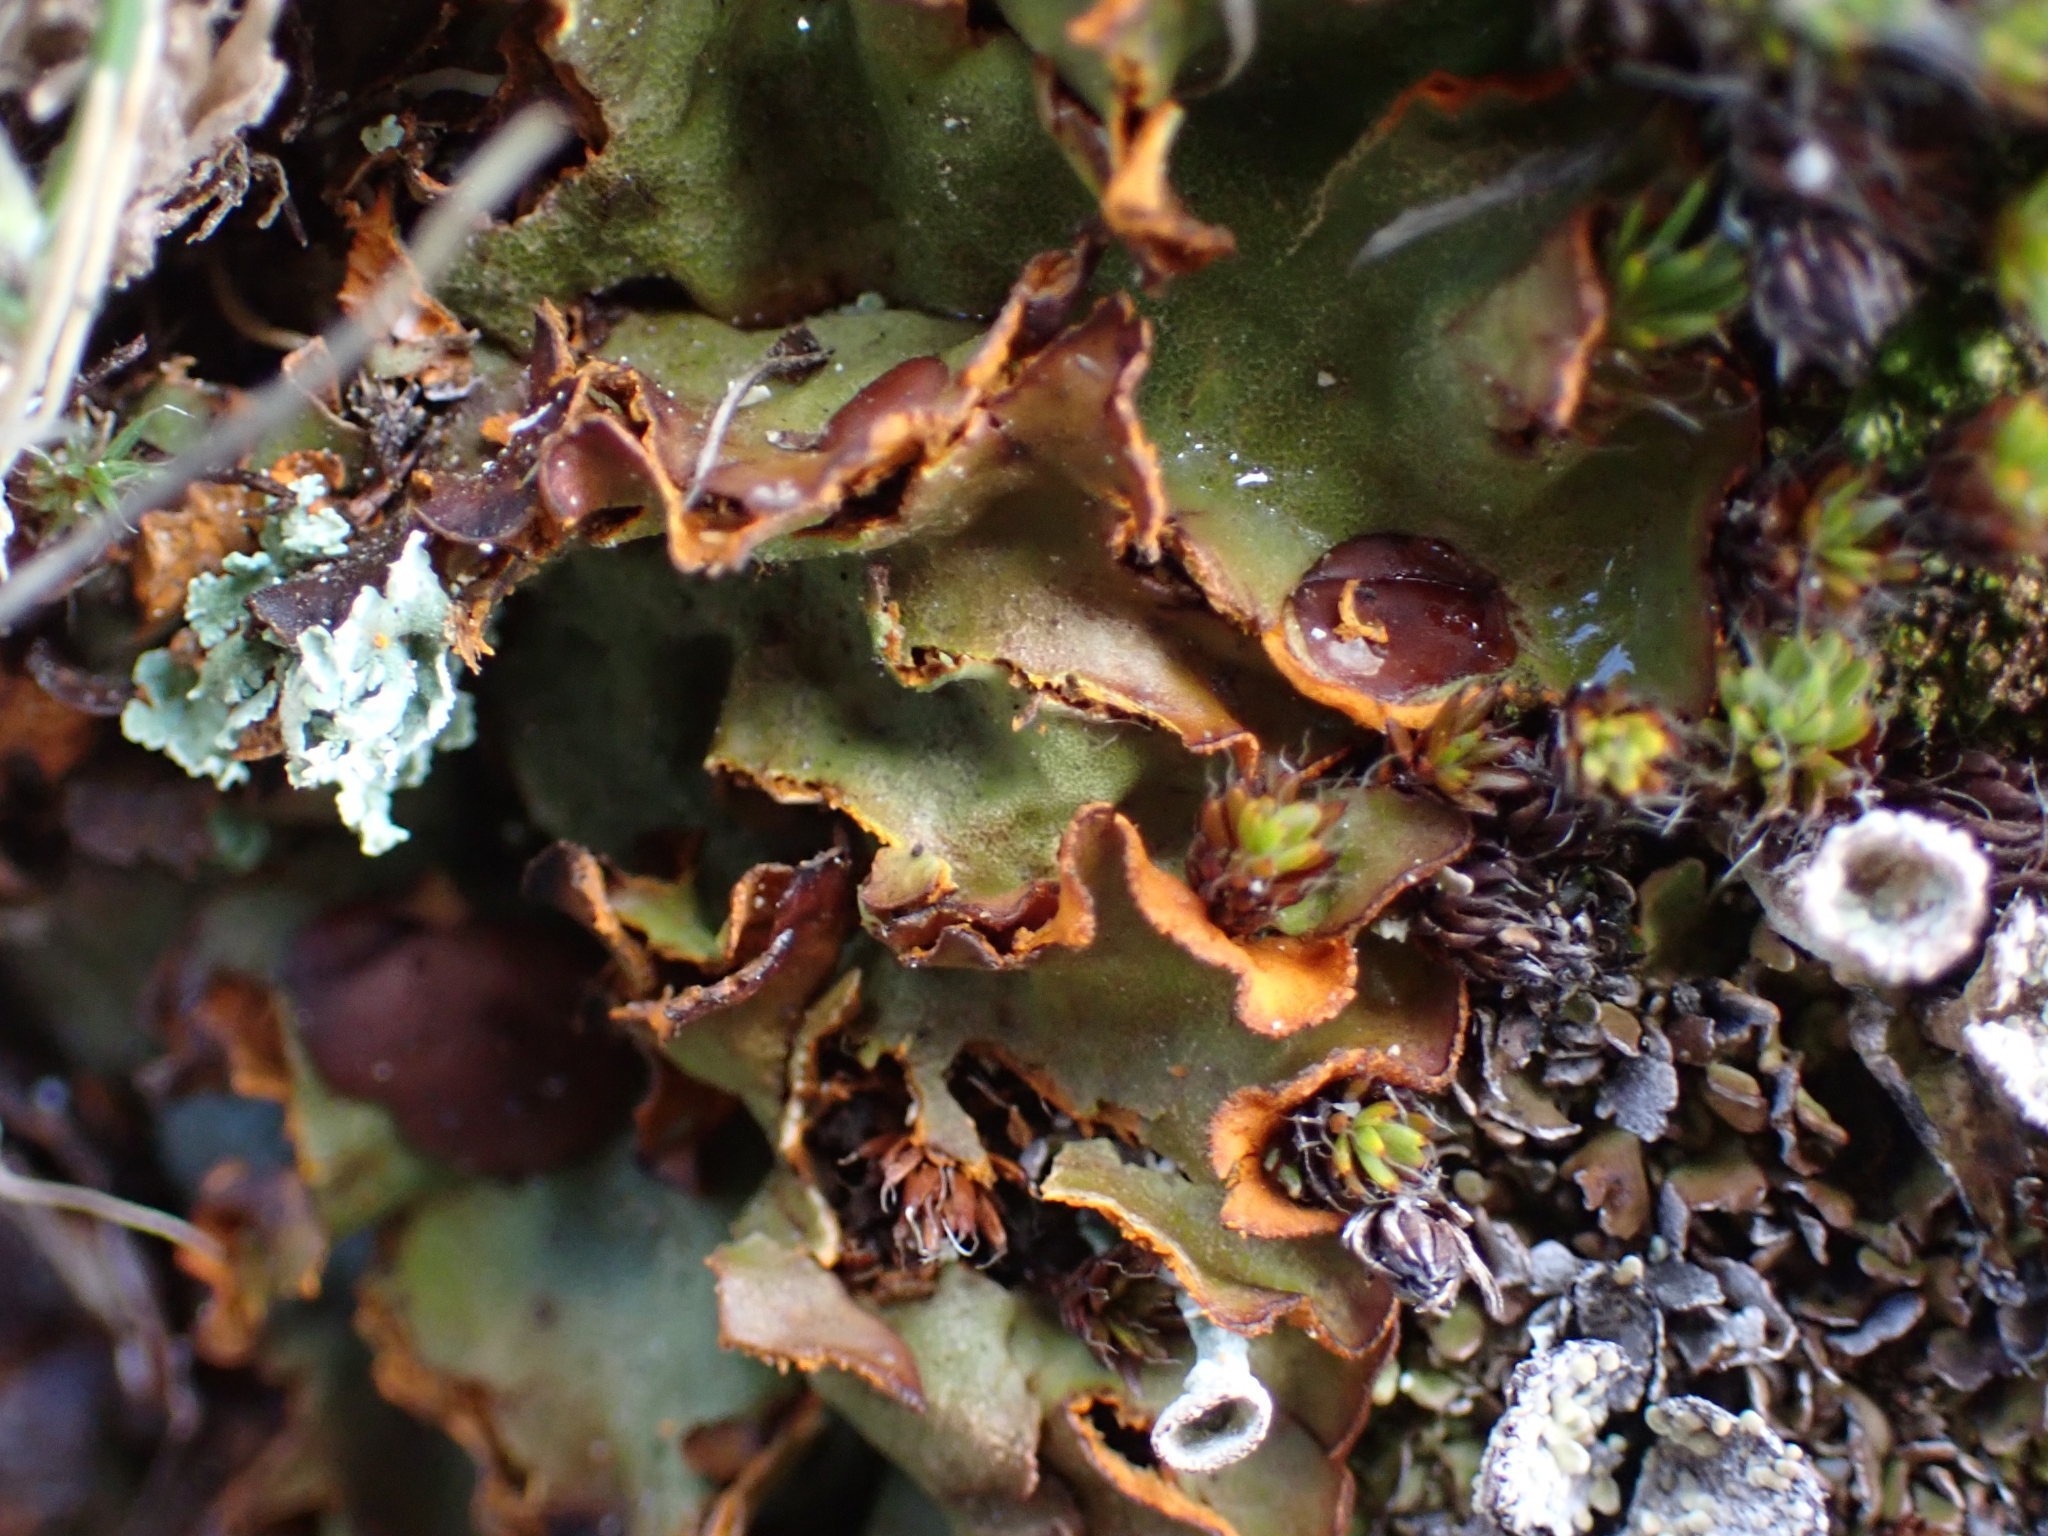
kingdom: Fungi
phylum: Ascomycota
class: Lecanoromycetes
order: Peltigerales
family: Peltigeraceae
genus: Solorina
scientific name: Solorina crocea
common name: Mountain saffron
